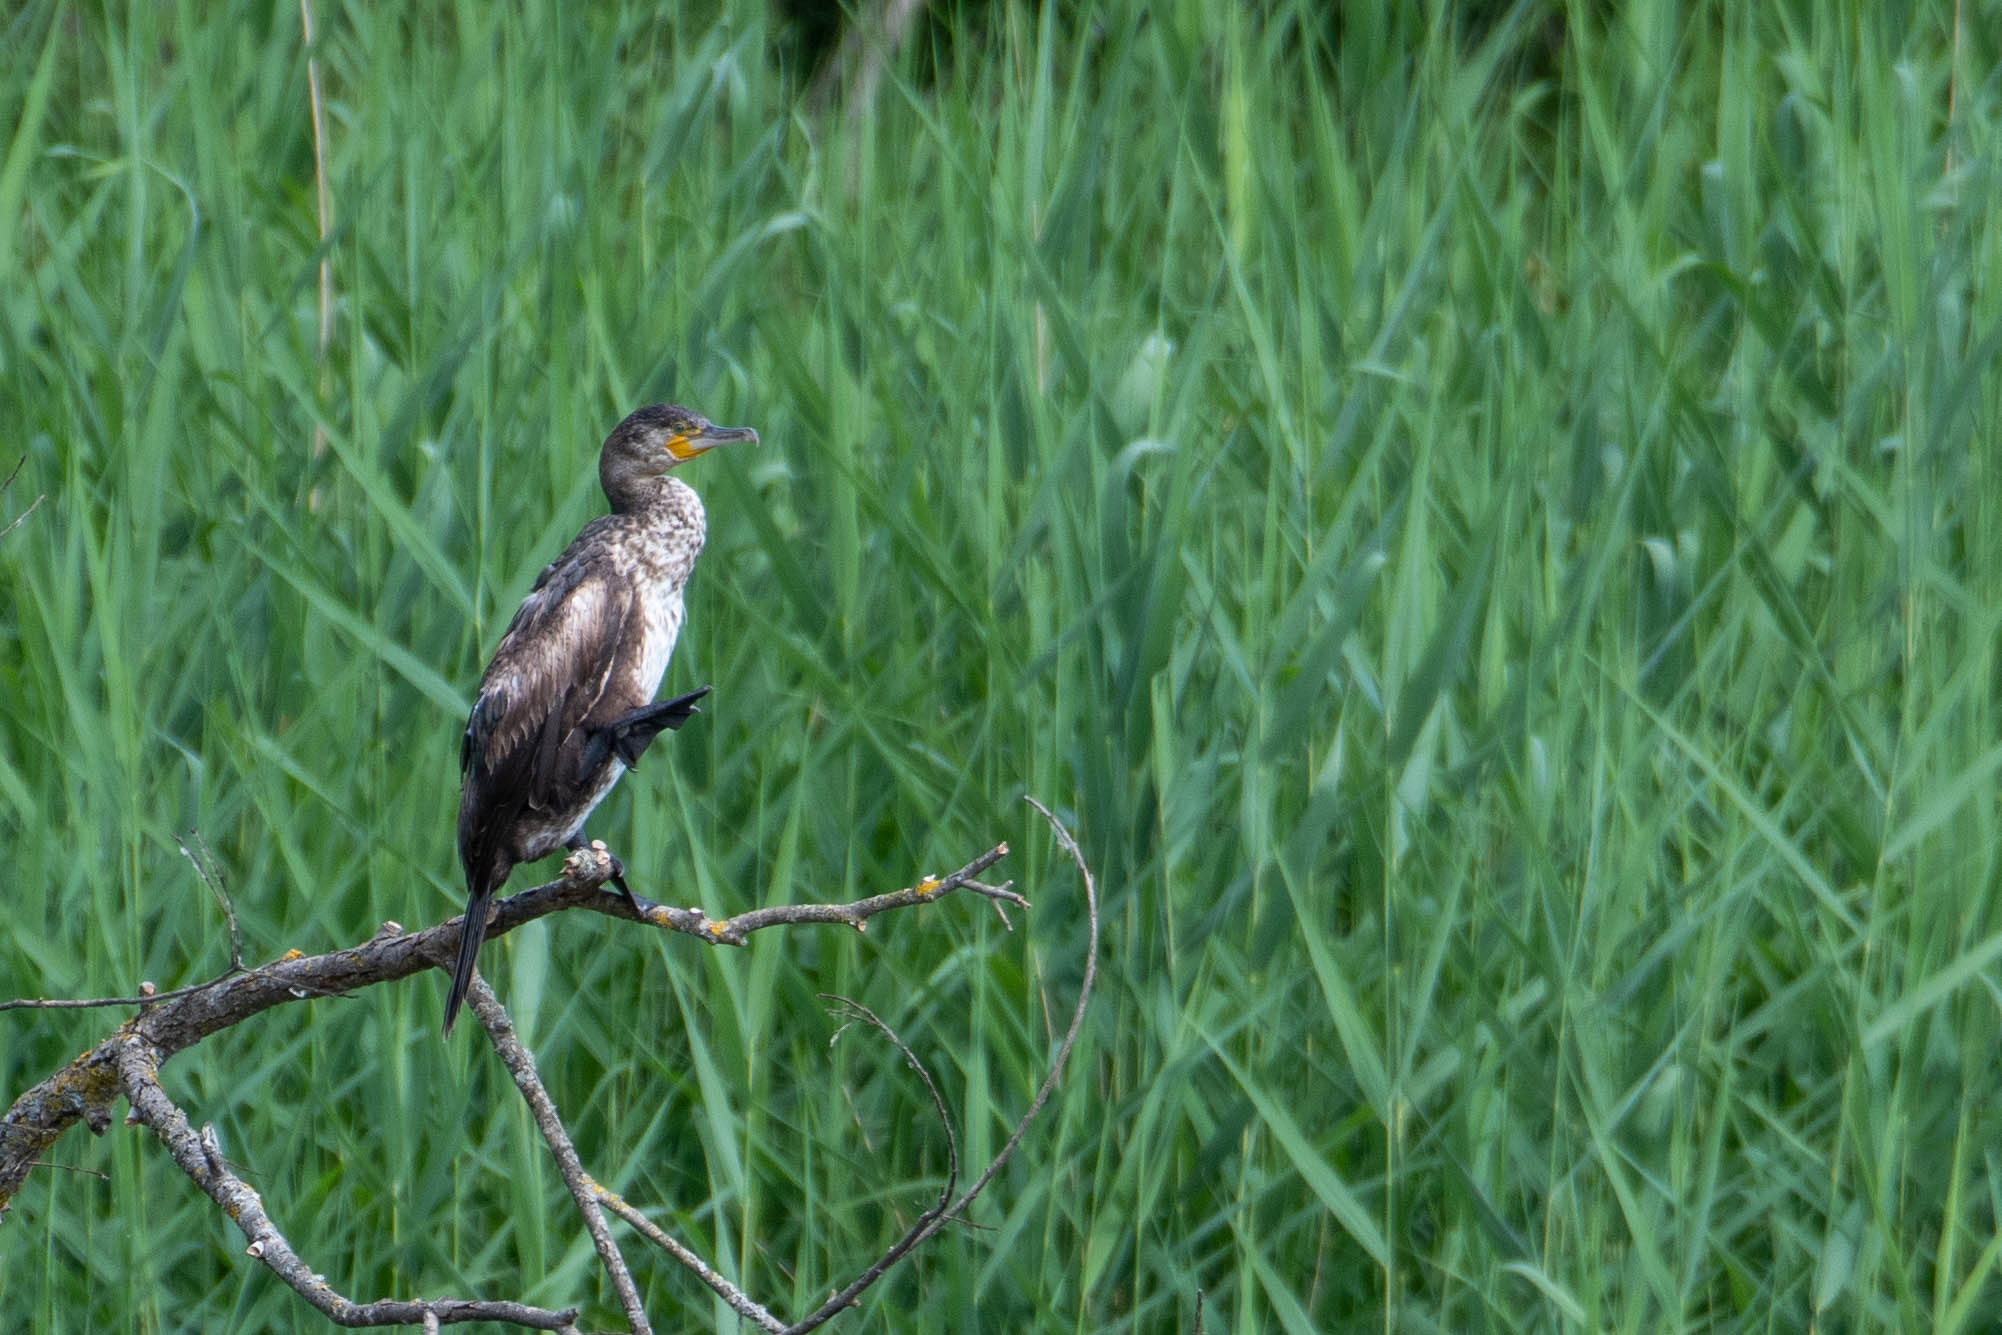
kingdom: Animalia
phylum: Chordata
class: Aves
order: Suliformes
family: Phalacrocoracidae
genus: Phalacrocorax
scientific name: Phalacrocorax carbo
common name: Great cormorant
